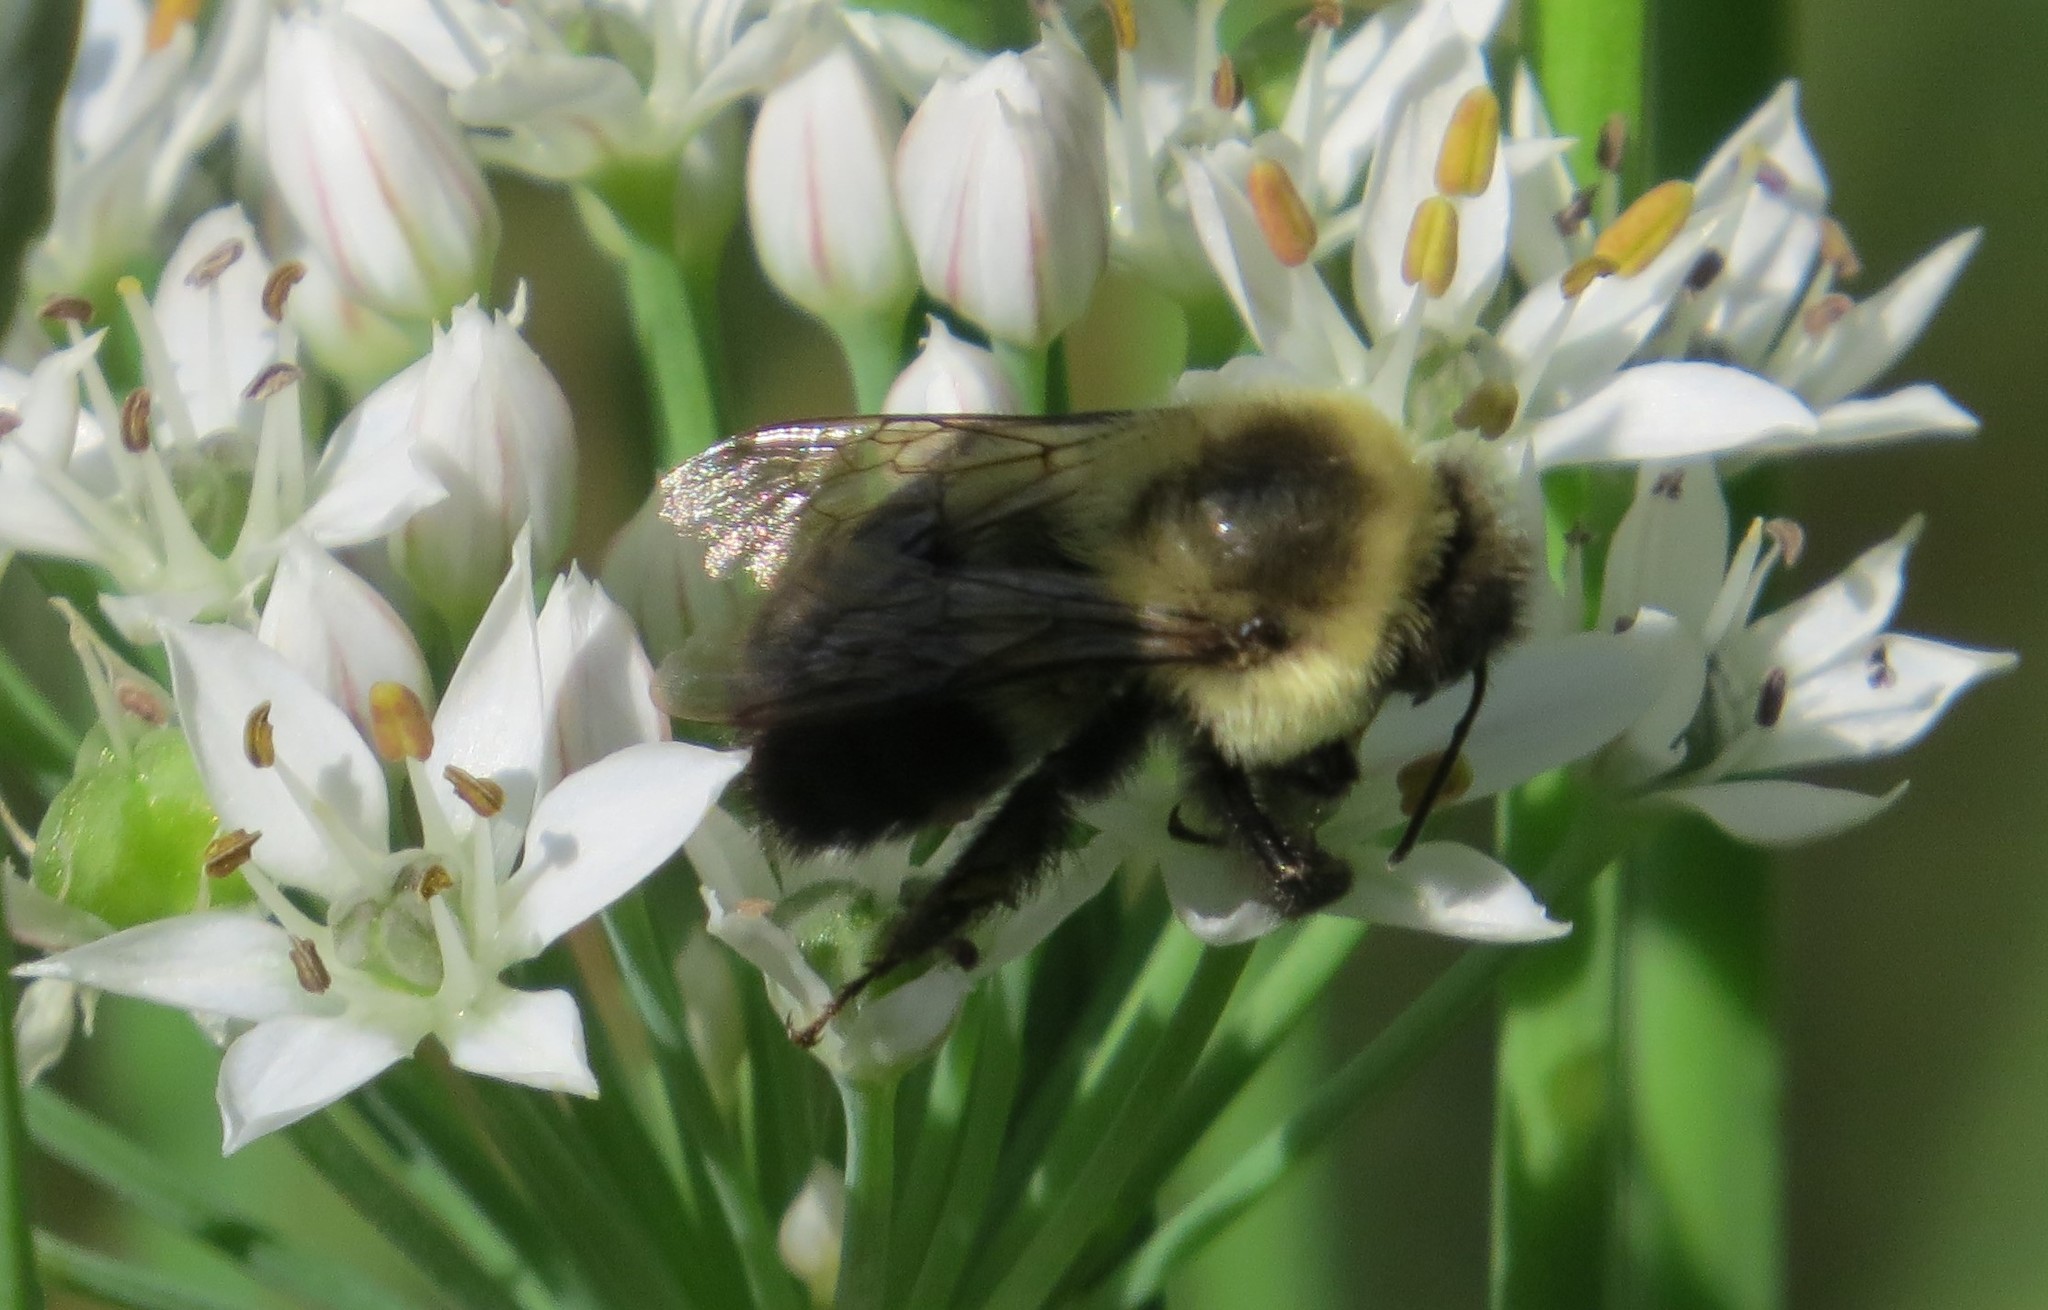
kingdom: Animalia
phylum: Arthropoda
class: Insecta
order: Hymenoptera
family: Apidae
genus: Bombus
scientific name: Bombus impatiens
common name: Common eastern bumble bee
